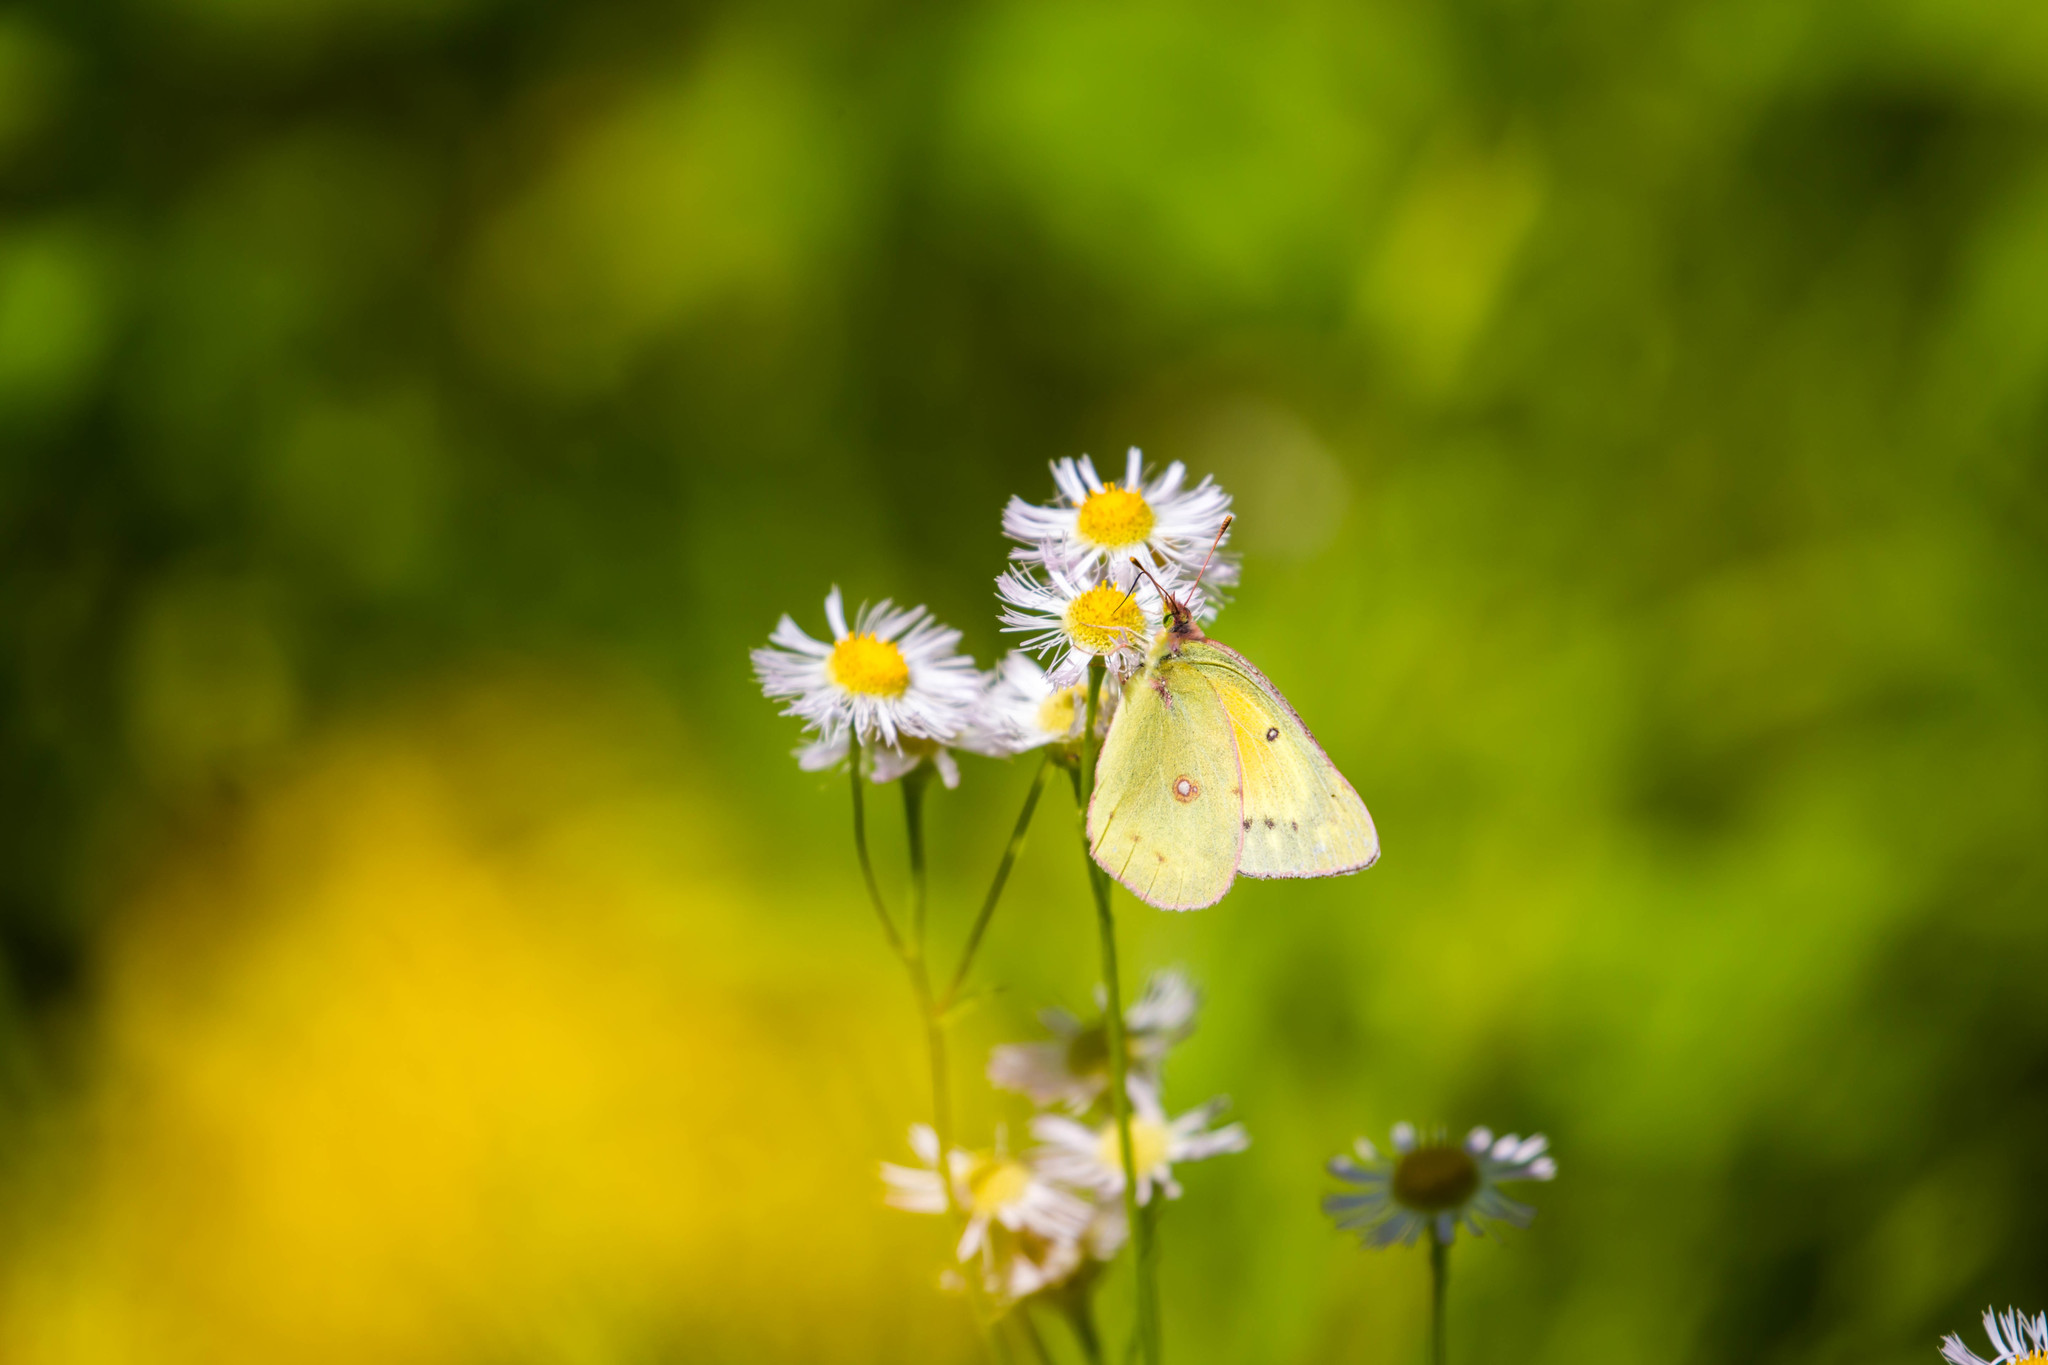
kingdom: Animalia
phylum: Arthropoda
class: Insecta
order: Lepidoptera
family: Pieridae
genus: Colias
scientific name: Colias eurytheme
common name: Alfalfa butterfly
